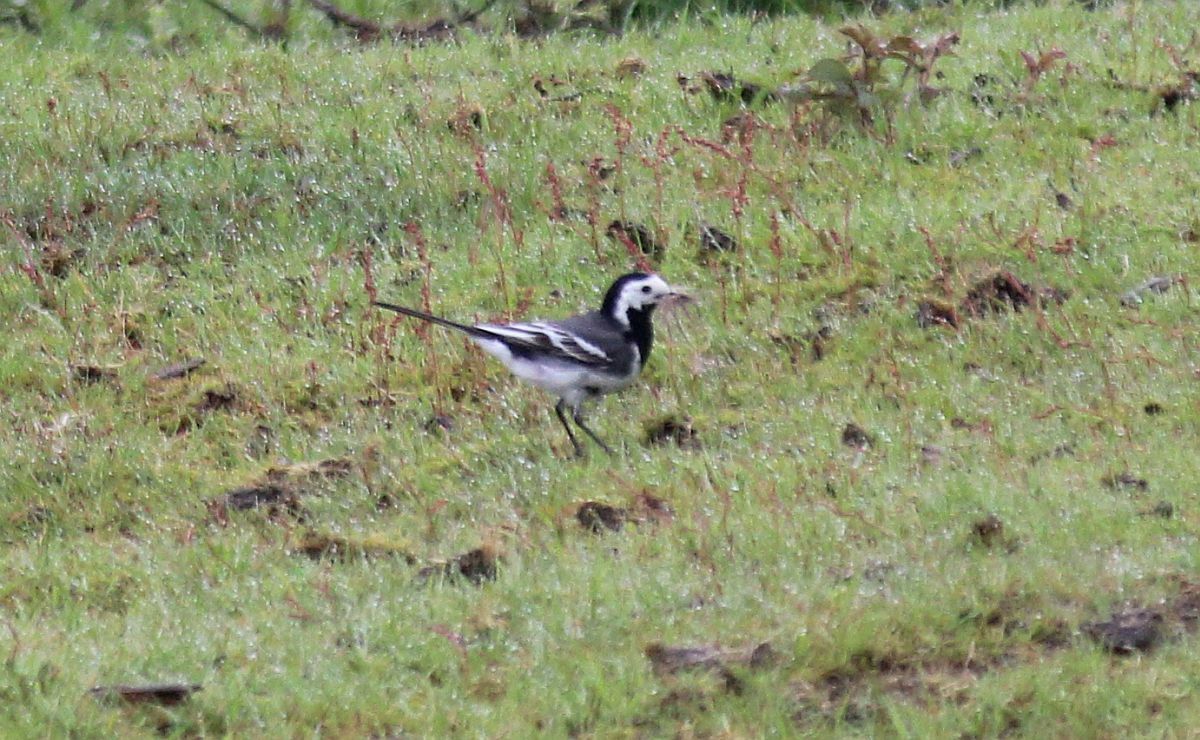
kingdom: Animalia
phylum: Chordata
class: Aves
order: Passeriformes
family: Motacillidae
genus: Motacilla
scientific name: Motacilla alba
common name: White wagtail
